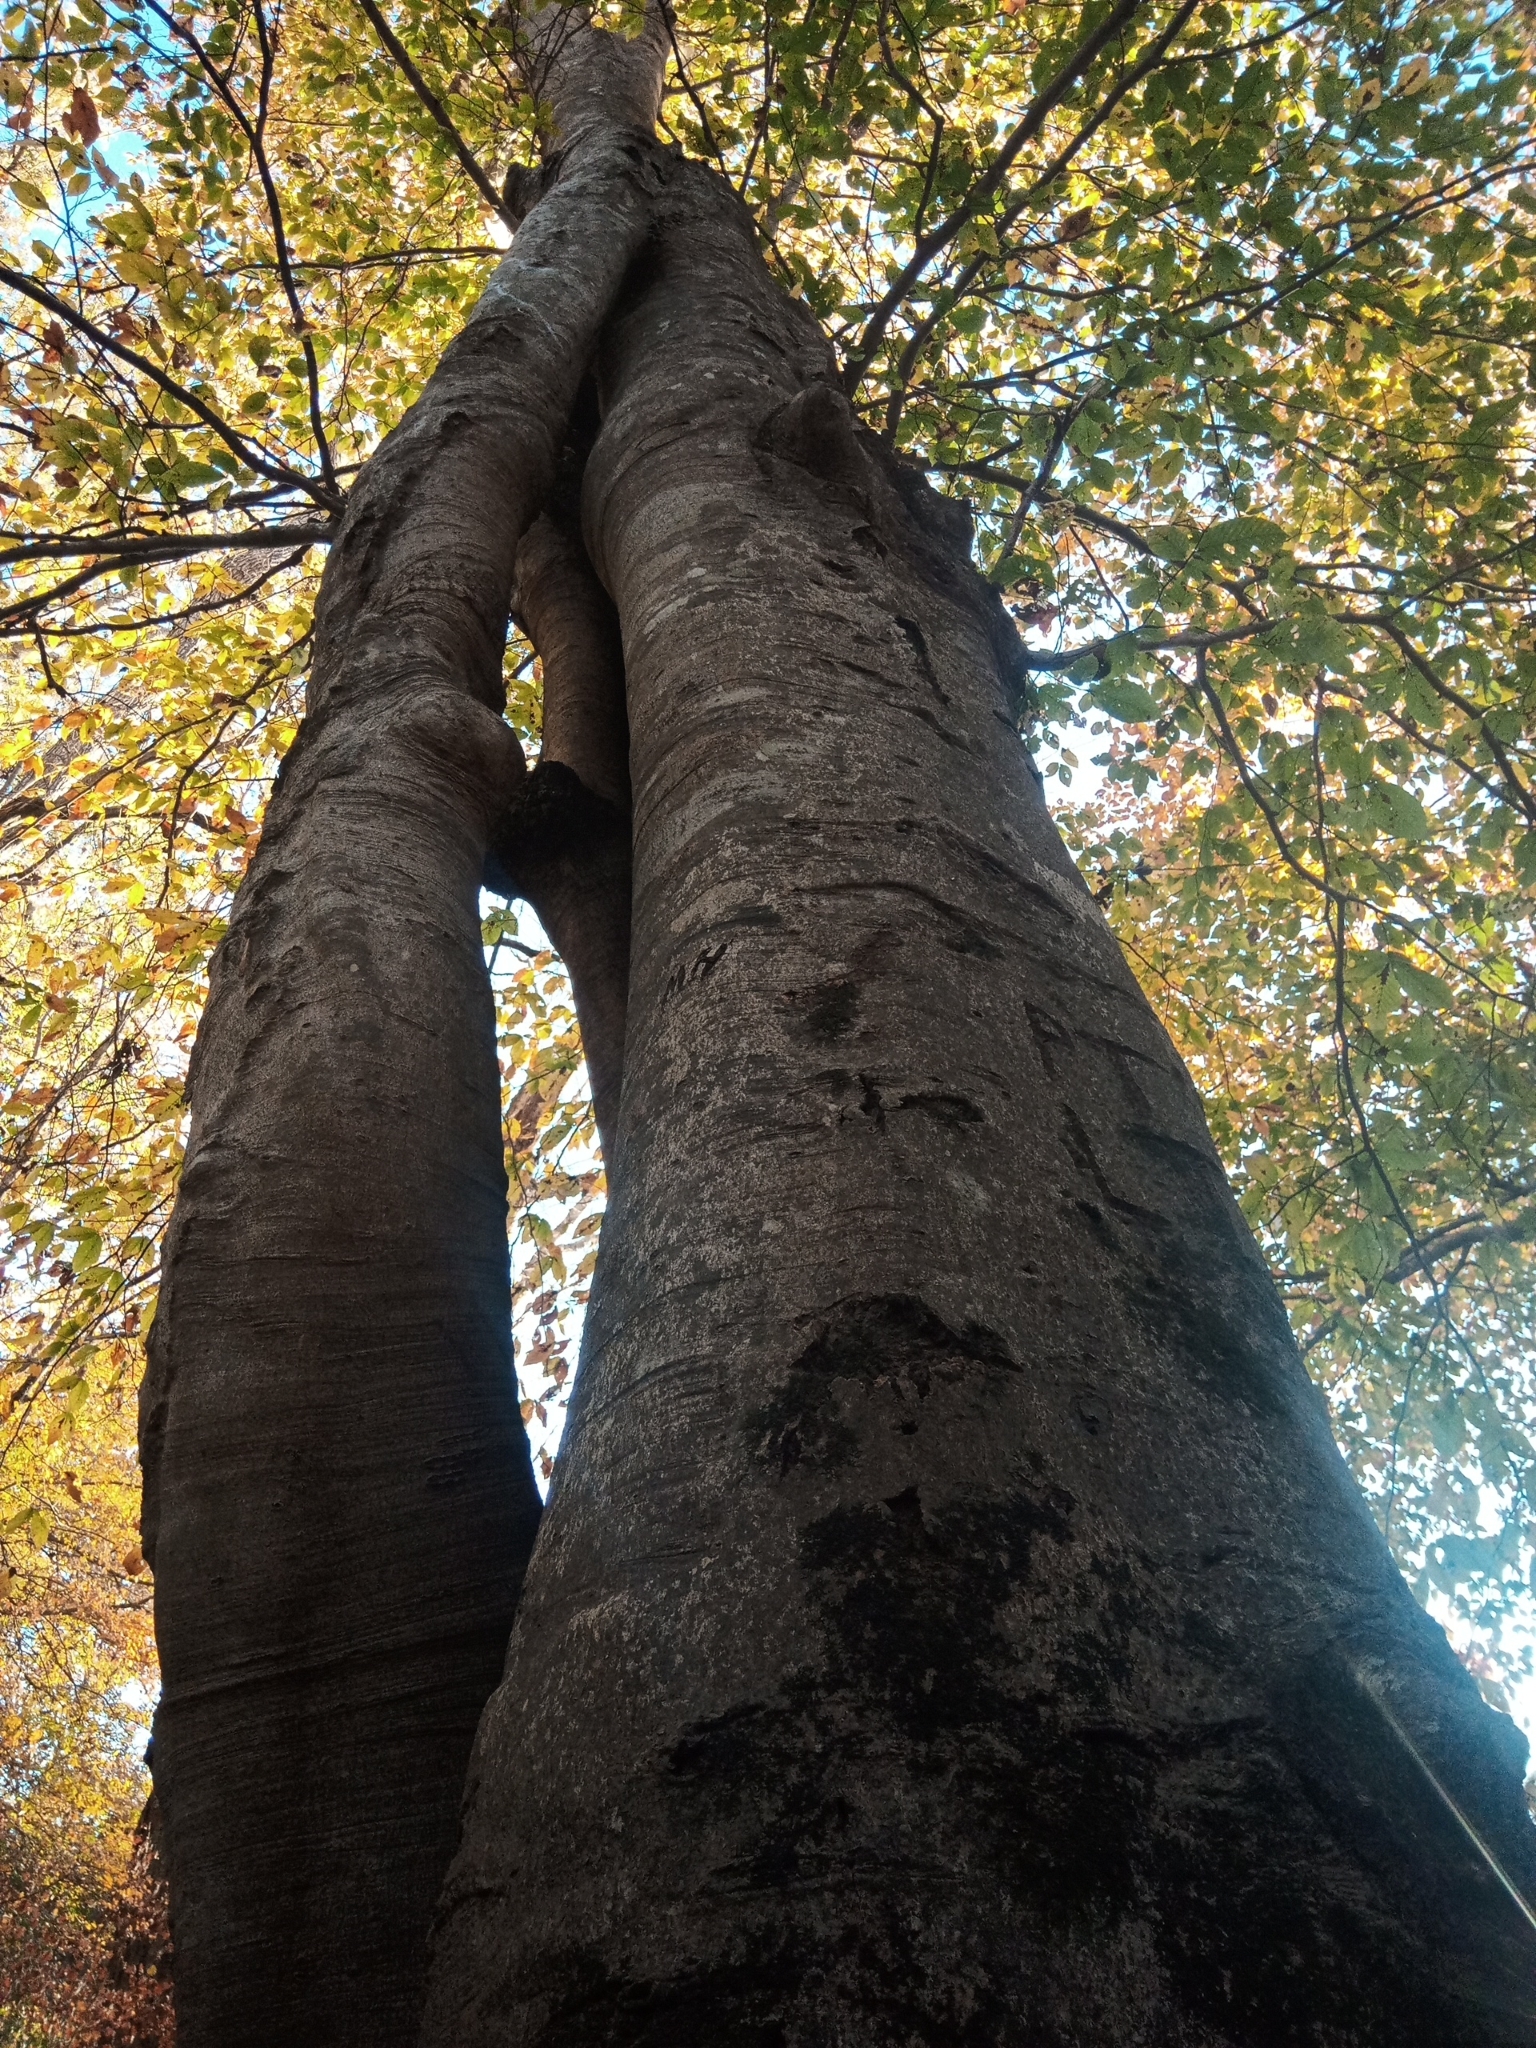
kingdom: Plantae
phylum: Tracheophyta
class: Magnoliopsida
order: Fagales
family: Fagaceae
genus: Fagus
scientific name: Fagus grandifolia
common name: American beech
